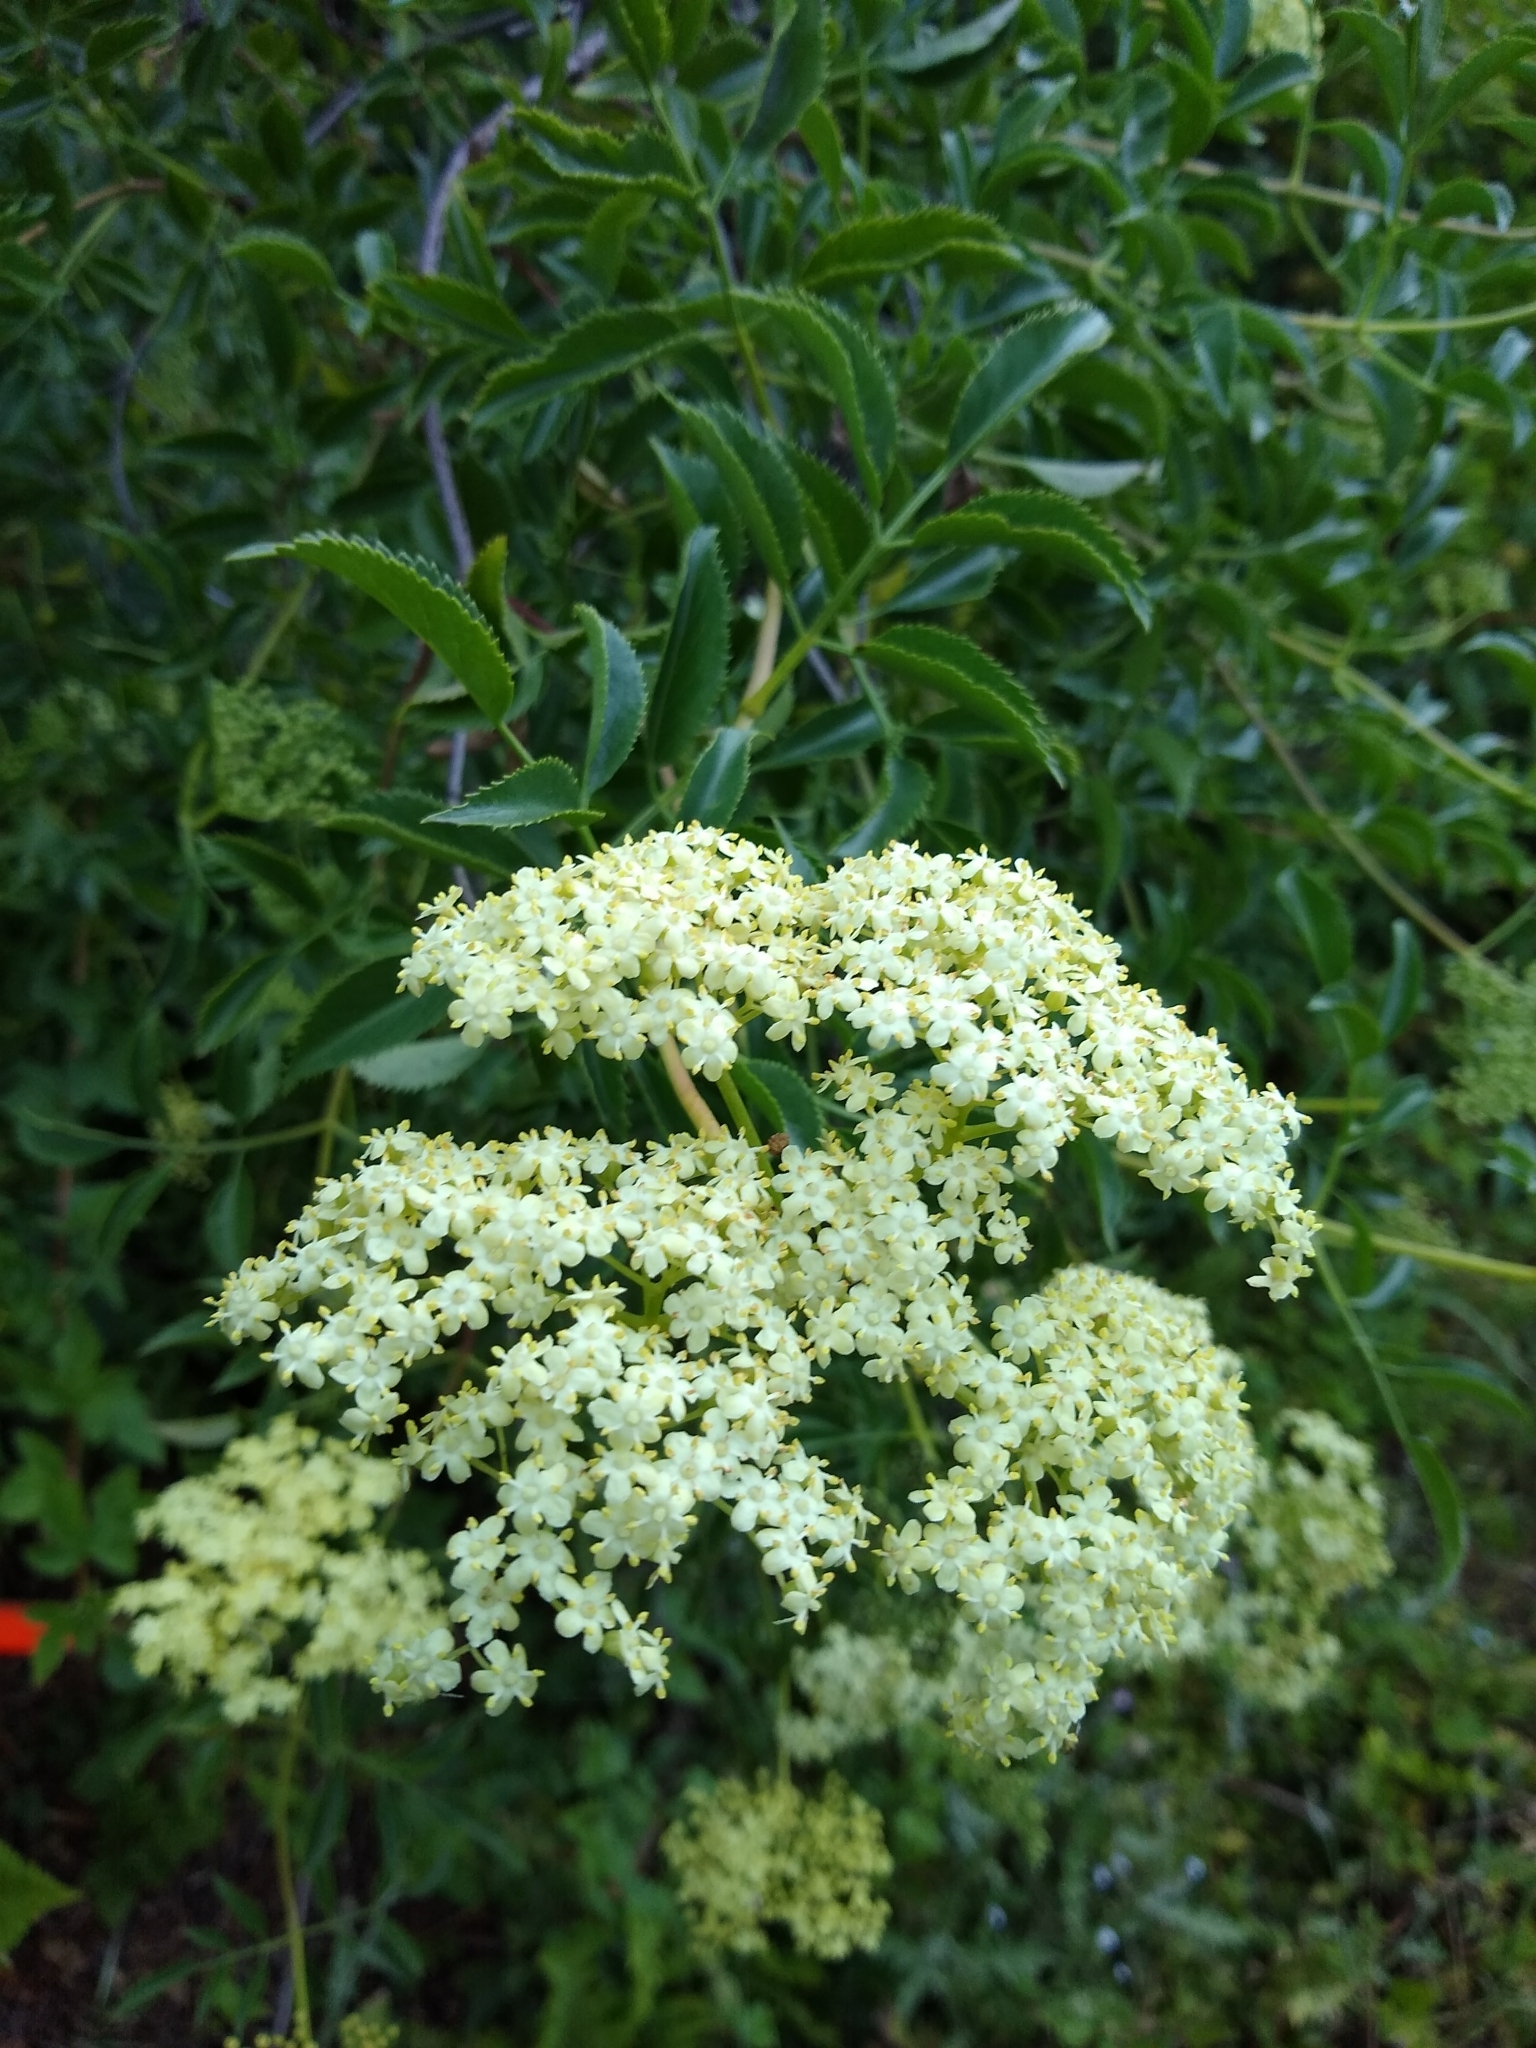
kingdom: Plantae
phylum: Tracheophyta
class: Magnoliopsida
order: Dipsacales
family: Viburnaceae
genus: Sambucus
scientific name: Sambucus cerulea
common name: Blue elder
